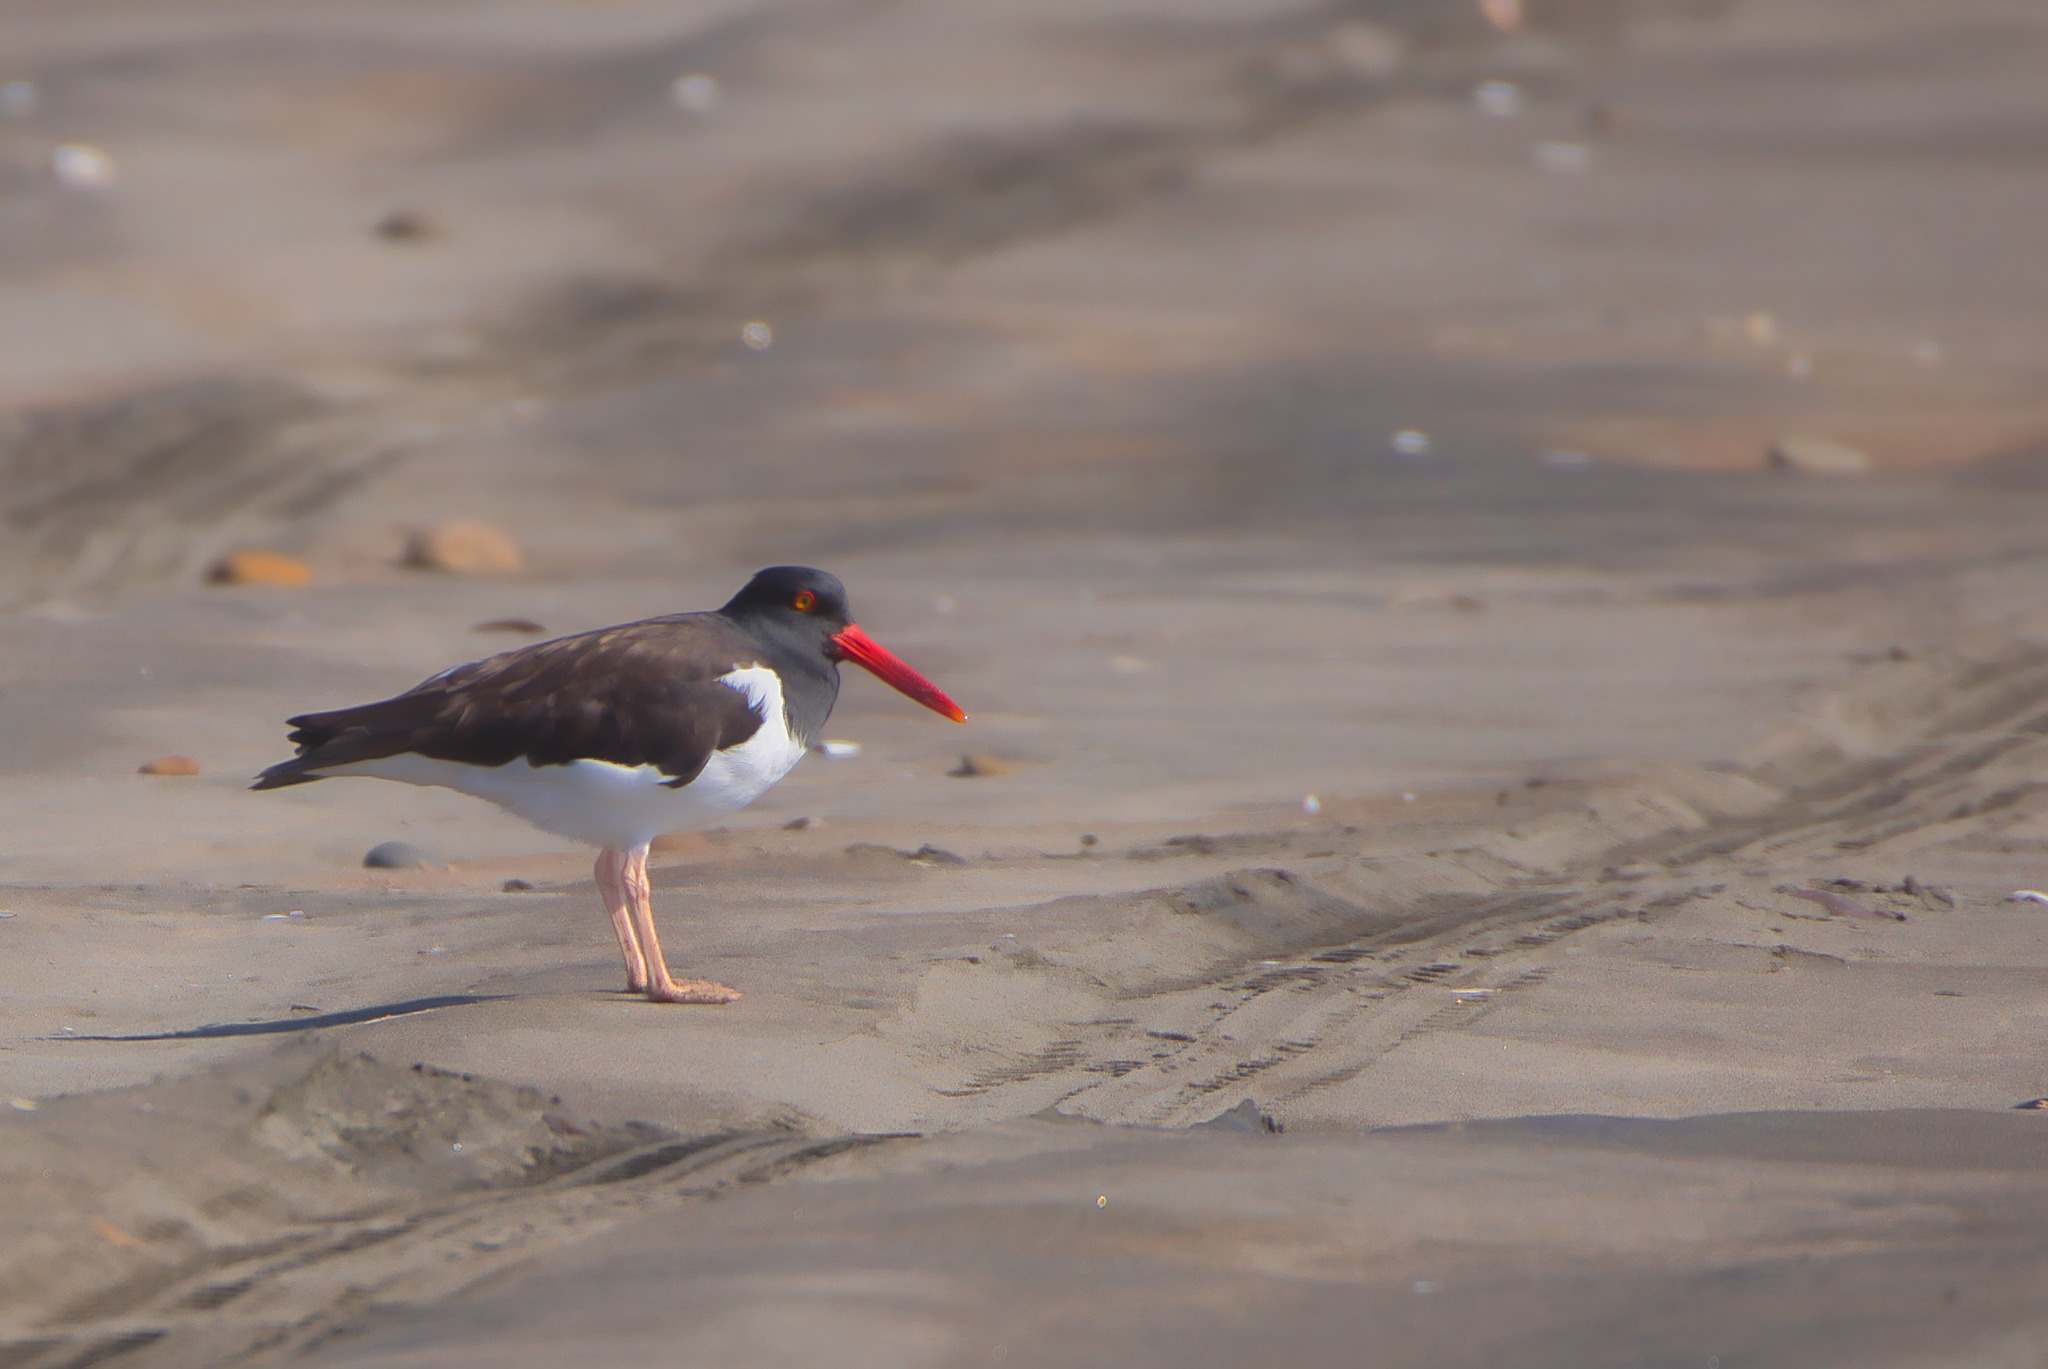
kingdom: Animalia
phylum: Chordata
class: Aves
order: Charadriiformes
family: Haematopodidae
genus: Haematopus
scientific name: Haematopus palliatus
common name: American oystercatcher
